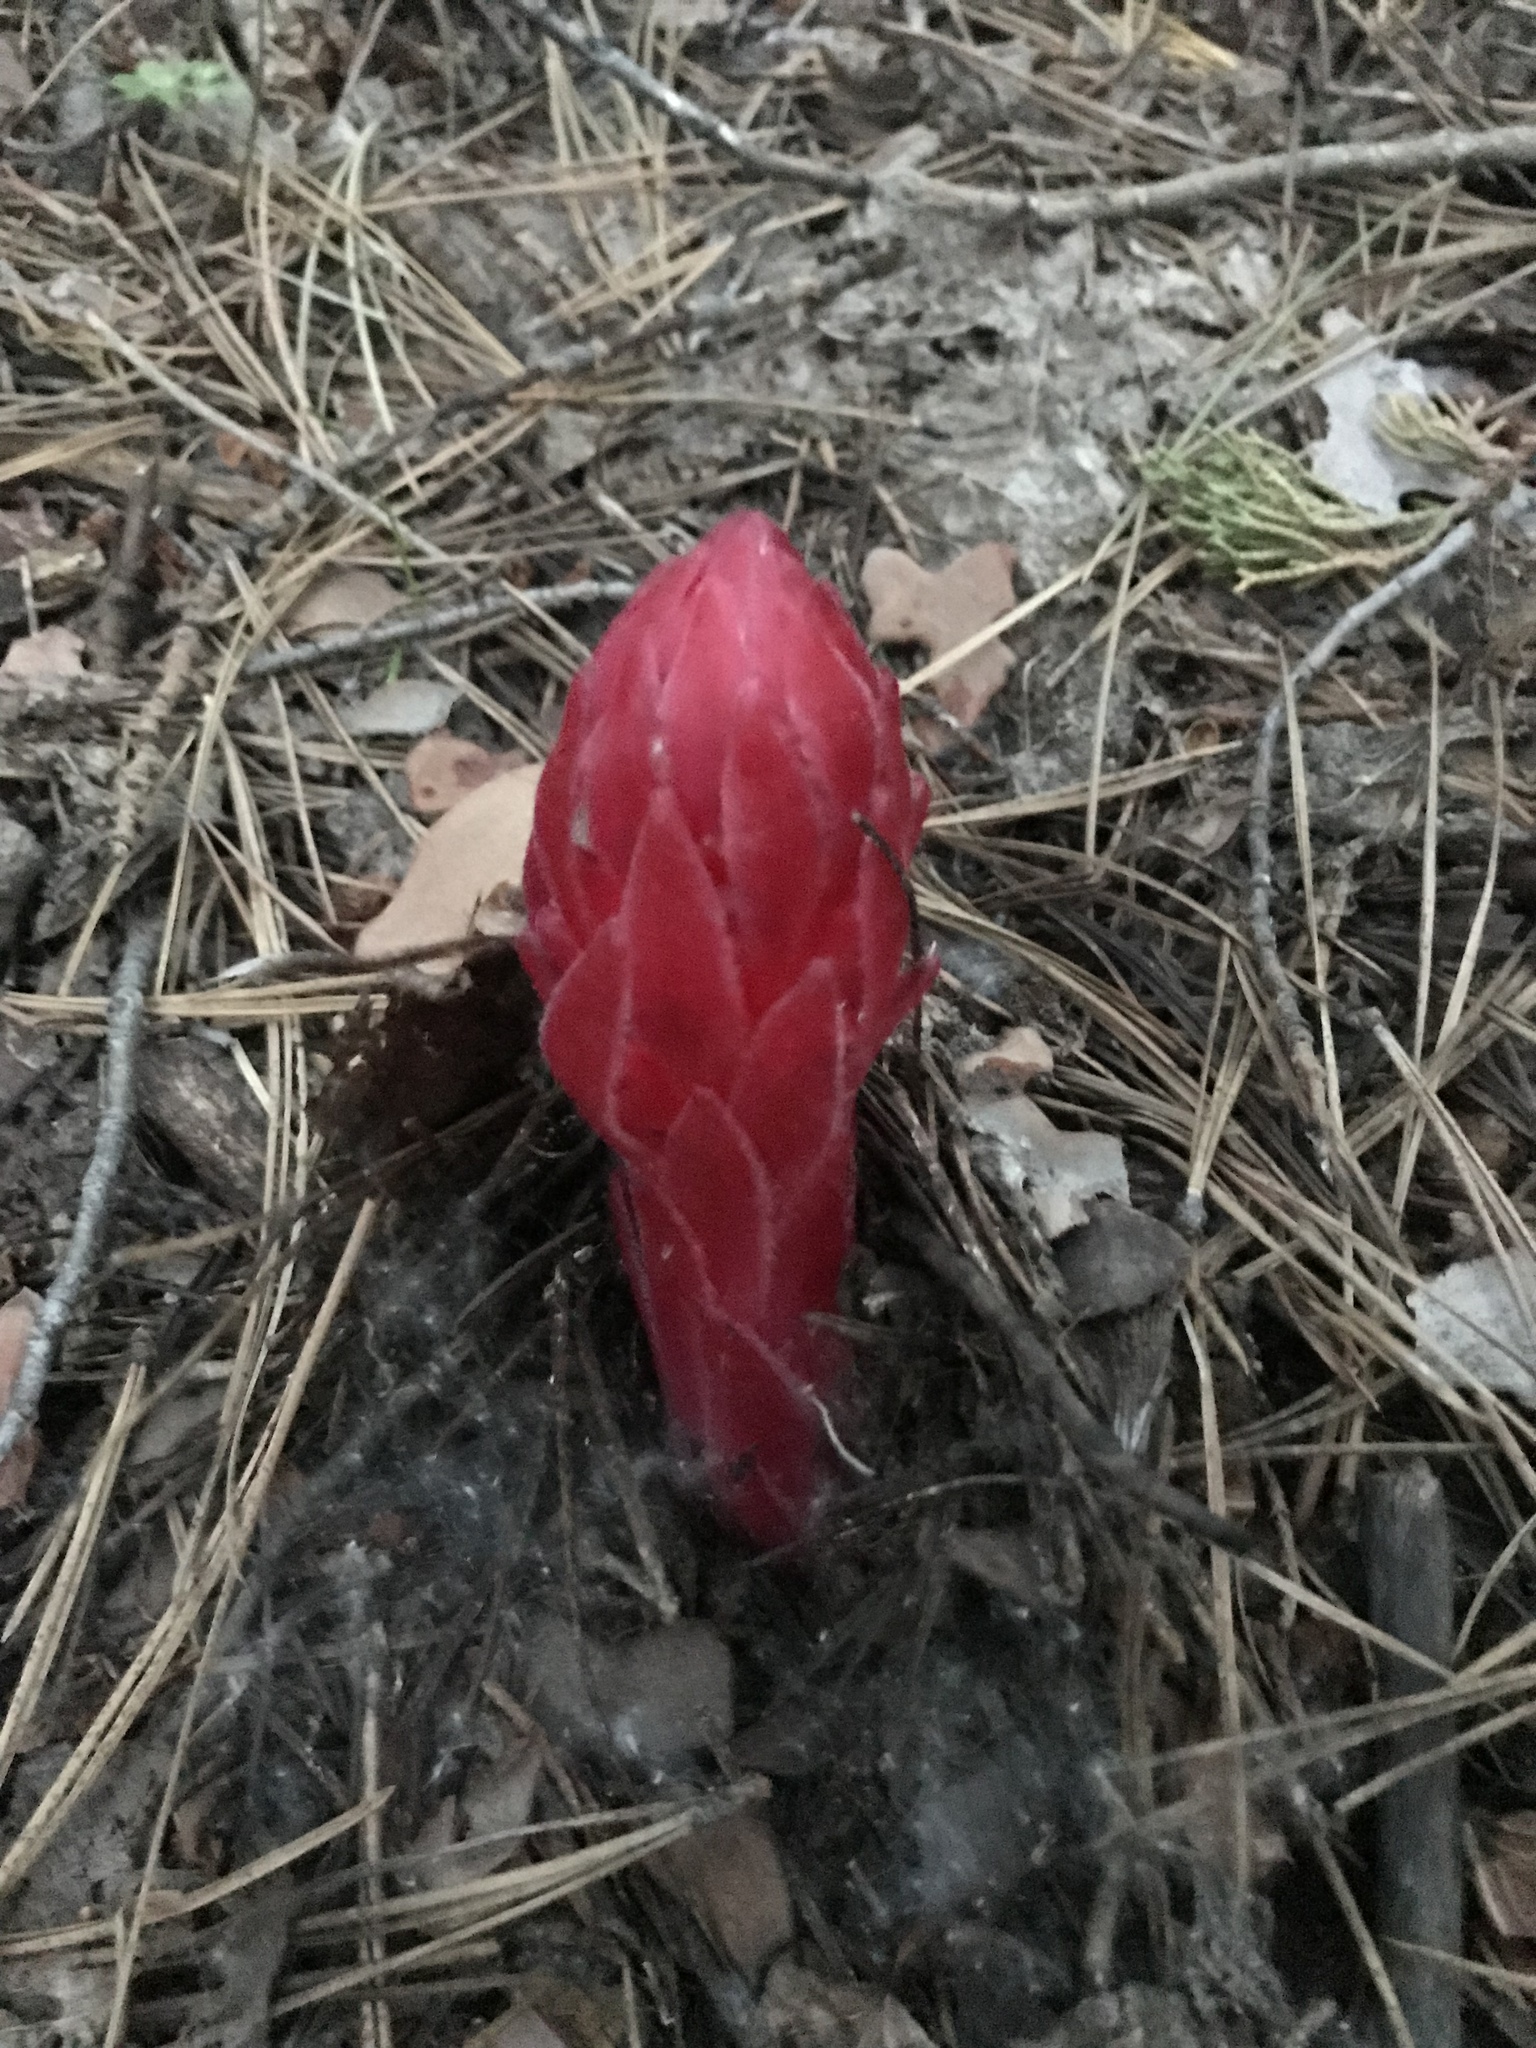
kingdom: Plantae
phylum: Tracheophyta
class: Magnoliopsida
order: Ericales
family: Ericaceae
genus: Sarcodes
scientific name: Sarcodes sanguinea
